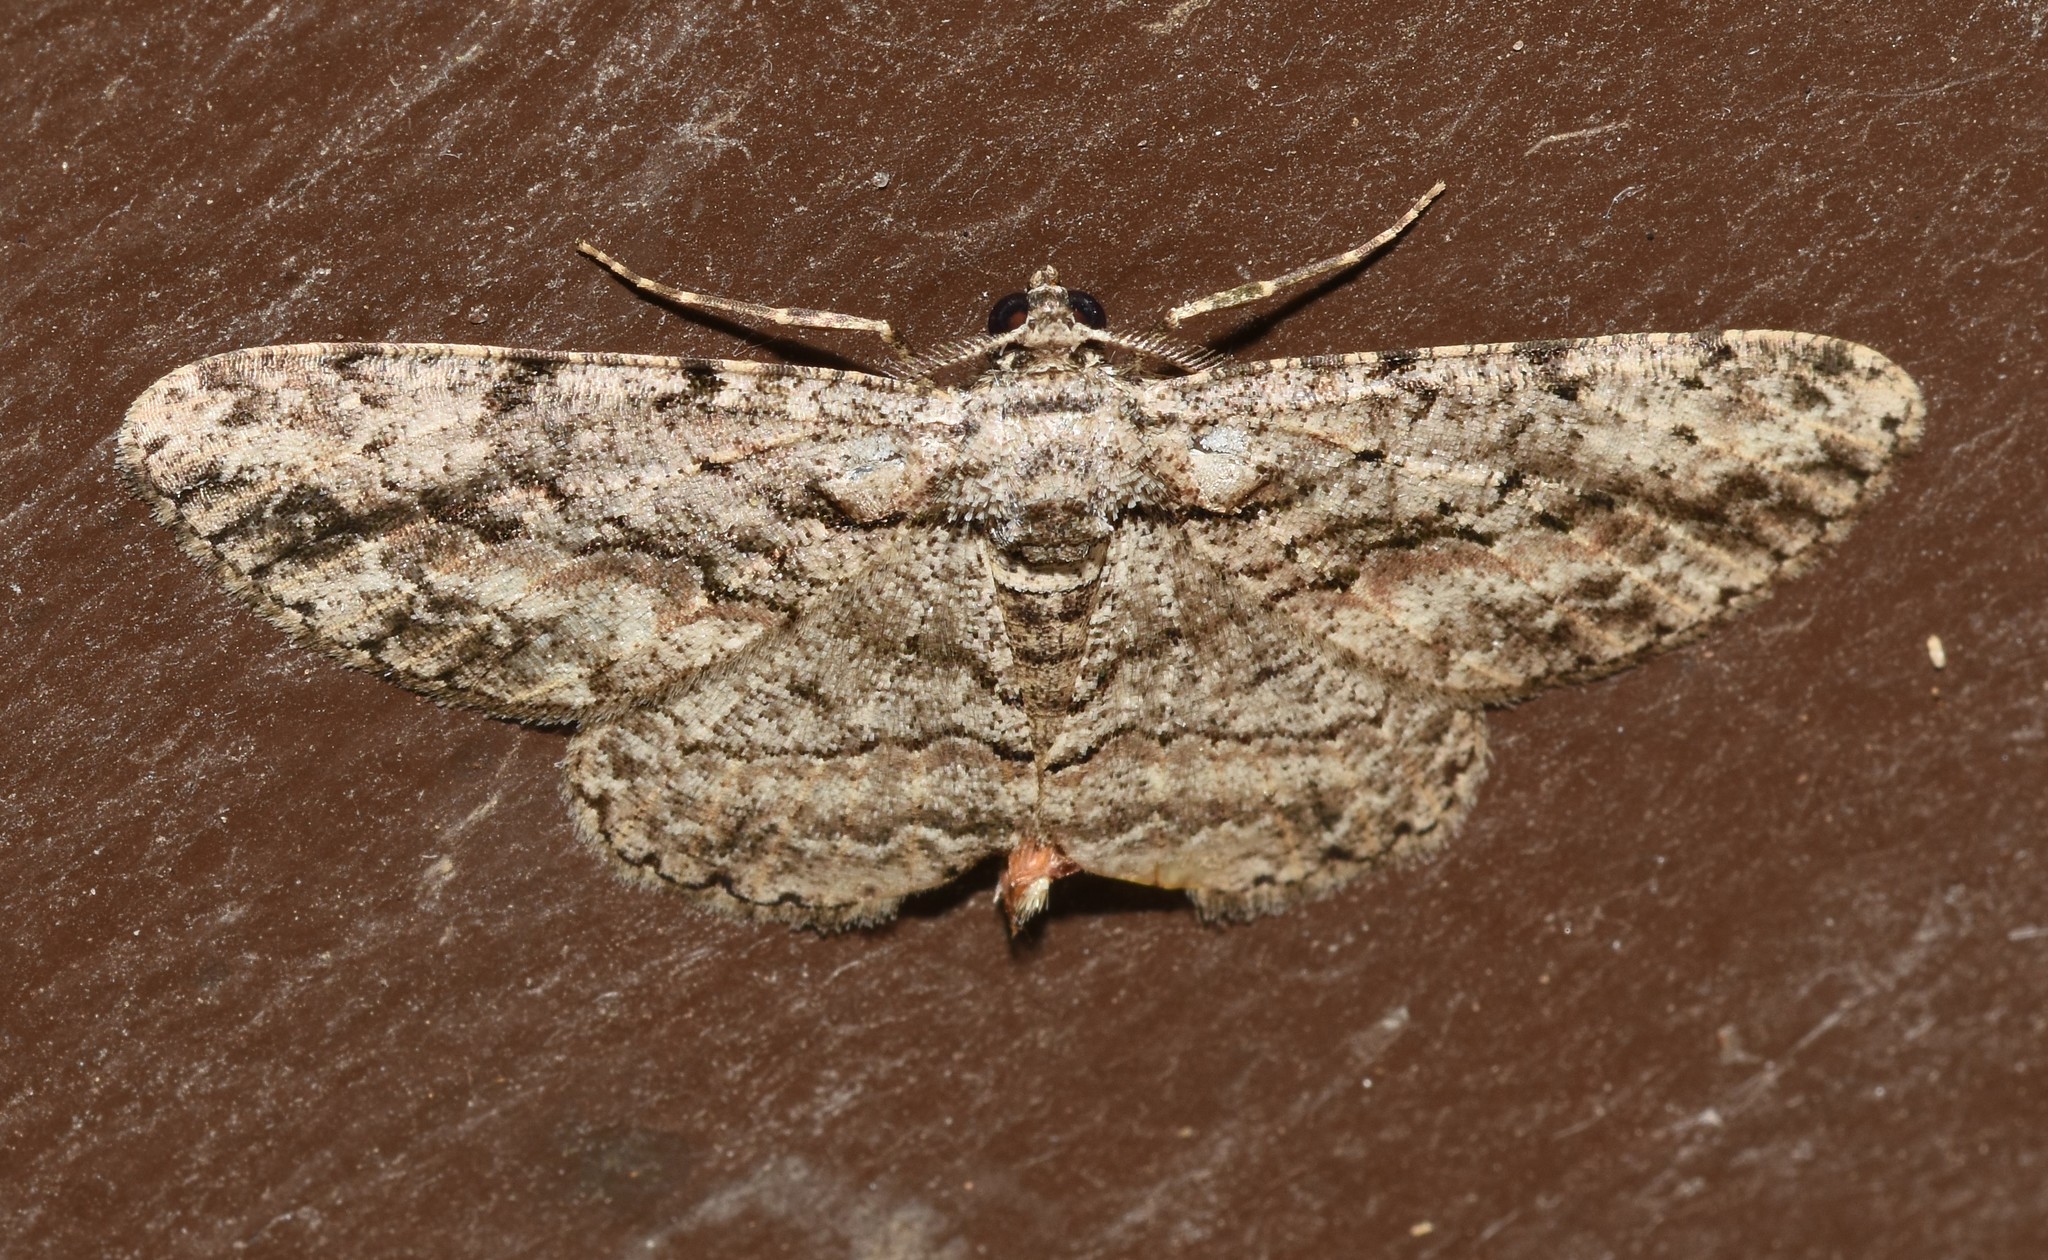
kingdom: Animalia
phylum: Arthropoda
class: Insecta
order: Lepidoptera
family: Geometridae
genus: Anavitrinella
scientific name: Anavitrinella pampinaria
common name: Common gray
